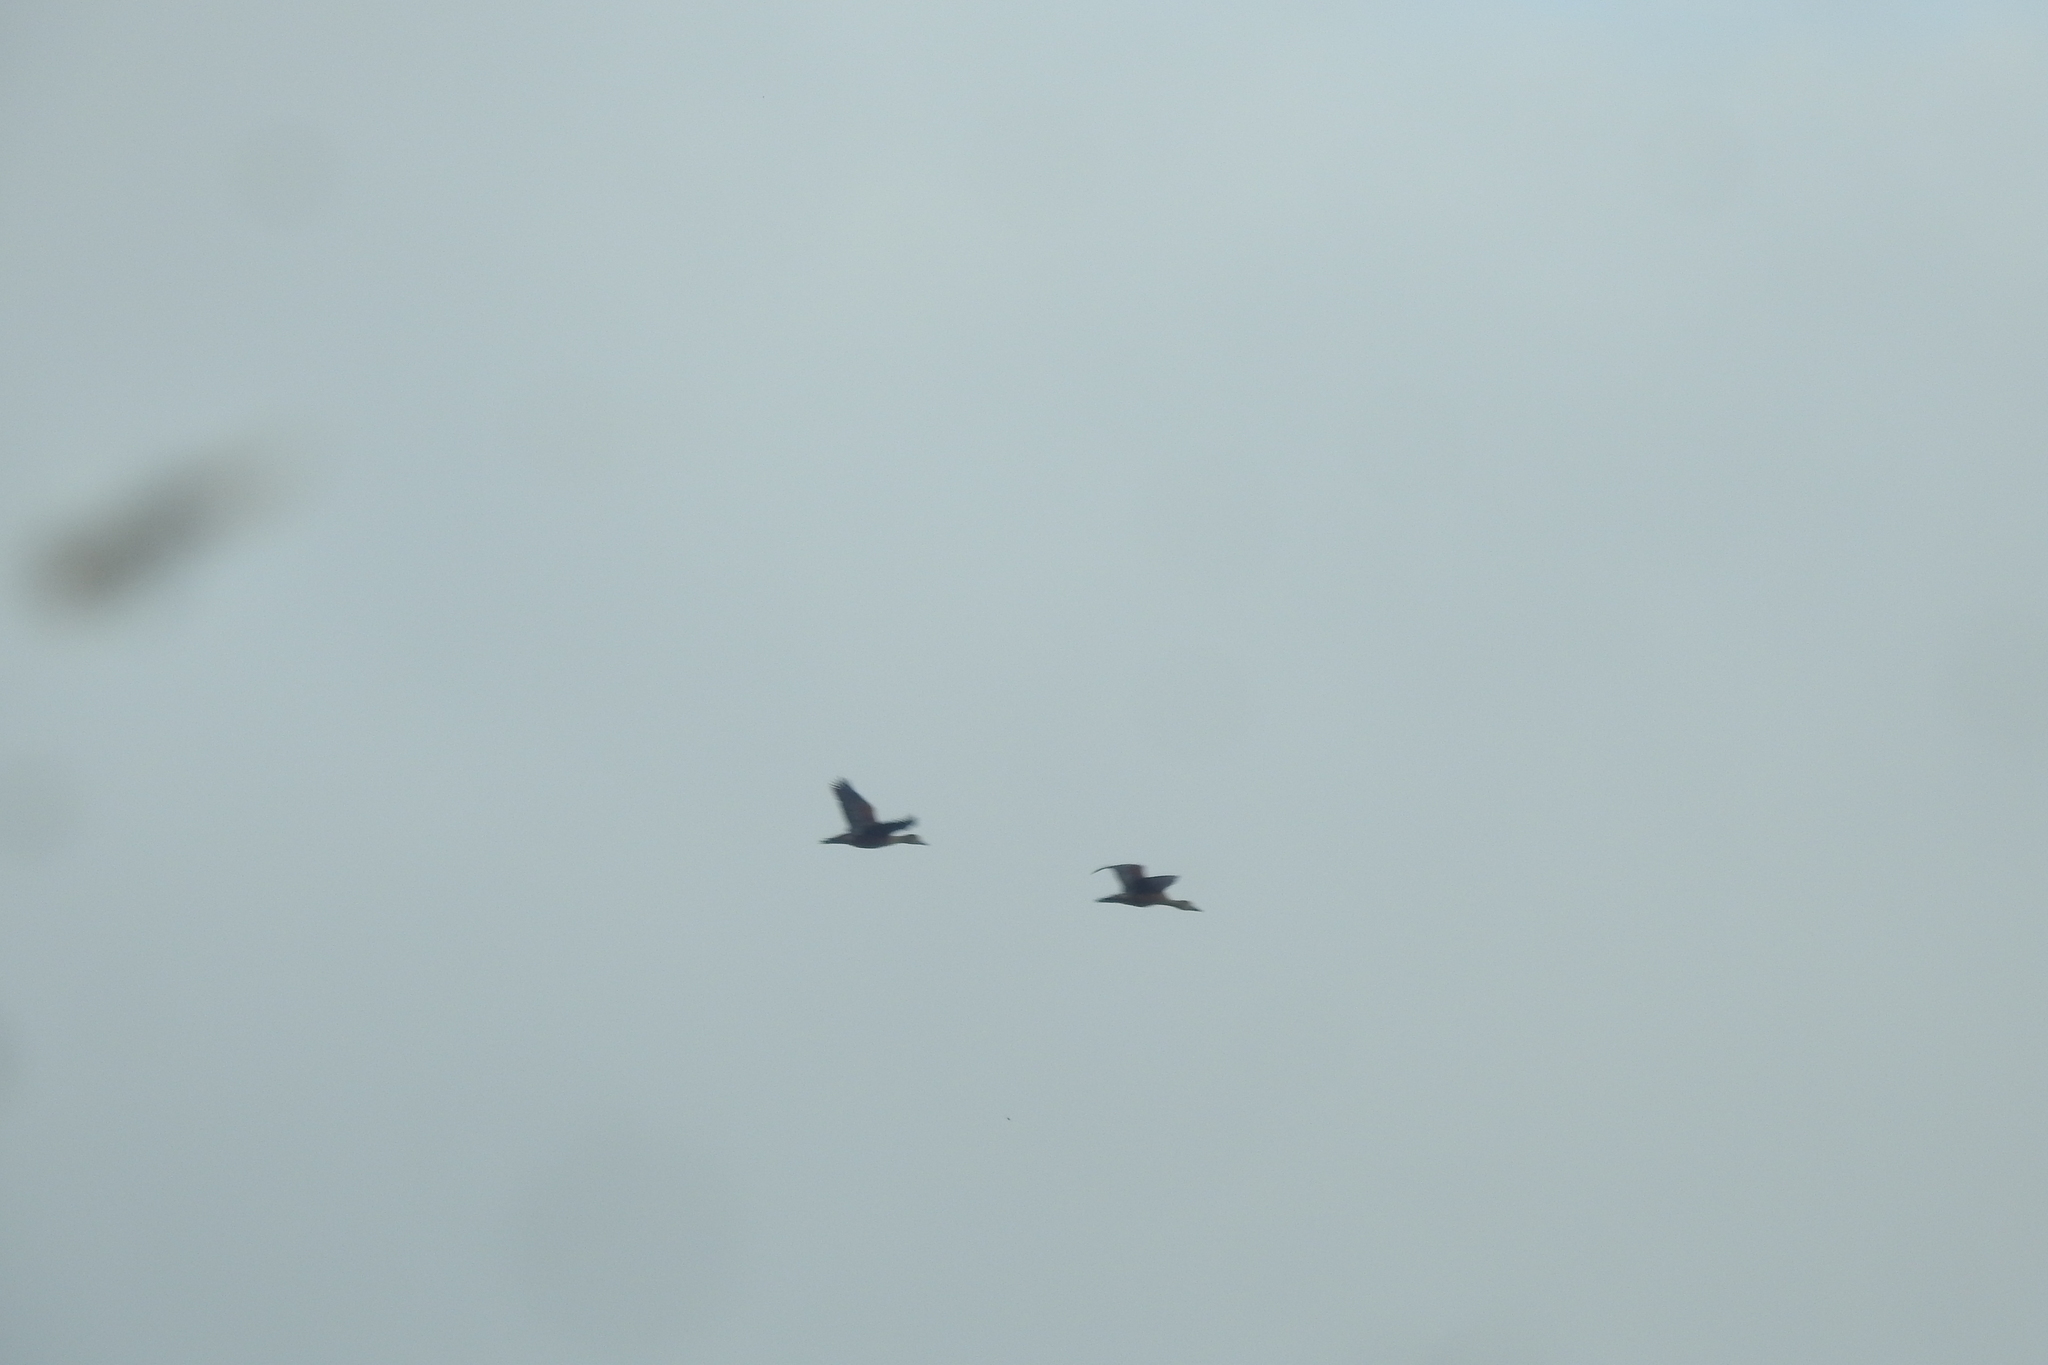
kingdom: Animalia
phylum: Chordata
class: Aves
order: Anseriformes
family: Anatidae
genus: Dendrocygna
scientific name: Dendrocygna javanica
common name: Lesser whistling-duck
